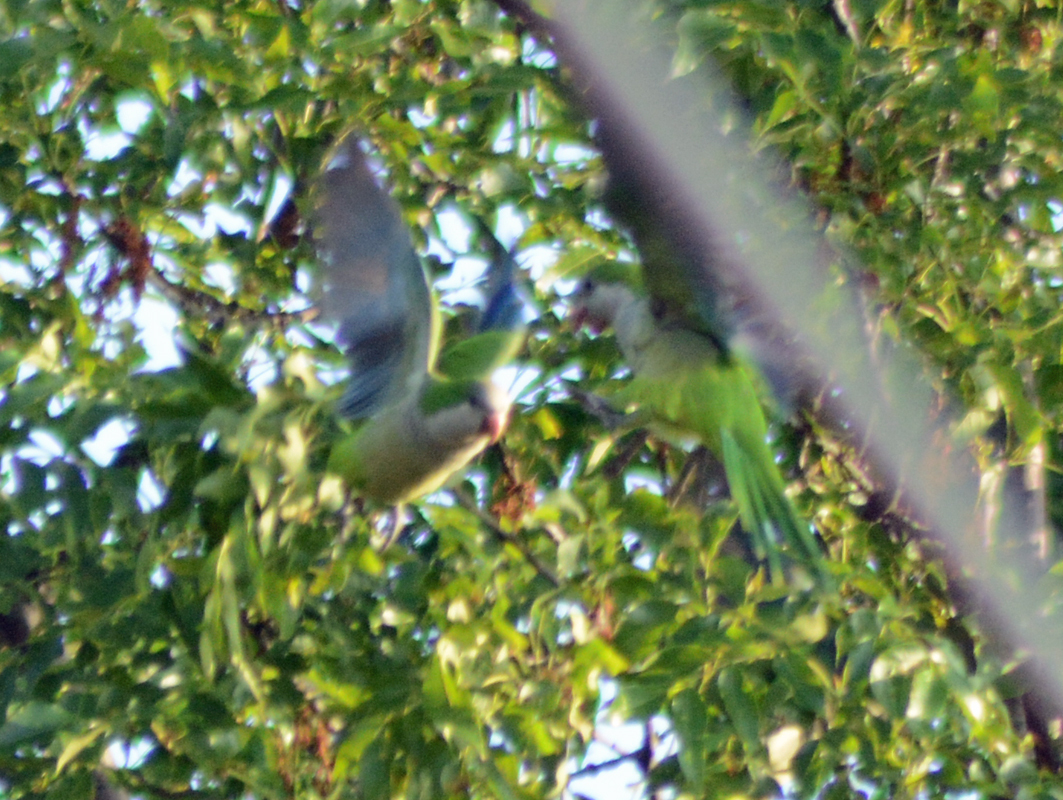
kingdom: Animalia
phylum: Chordata
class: Aves
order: Psittaciformes
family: Psittacidae
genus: Myiopsitta
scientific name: Myiopsitta monachus
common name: Monk parakeet
